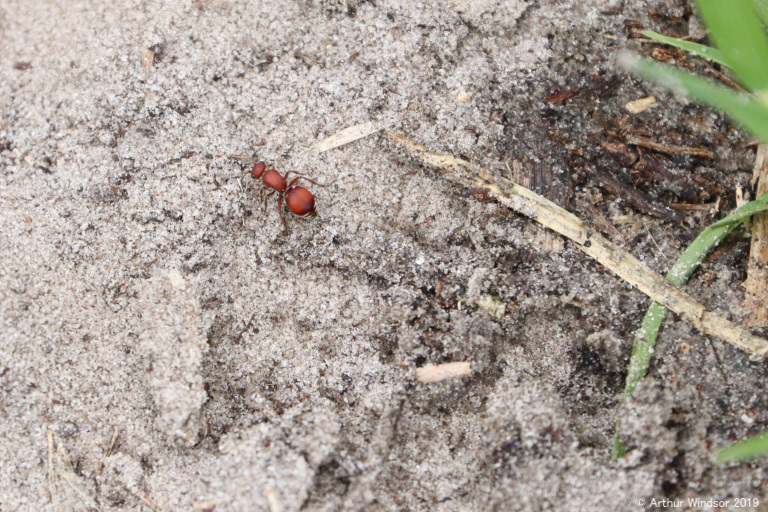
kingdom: Animalia
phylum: Arthropoda
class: Insecta
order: Hymenoptera
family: Mutillidae
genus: Pseudomethoca
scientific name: Pseudomethoca sanbornii
